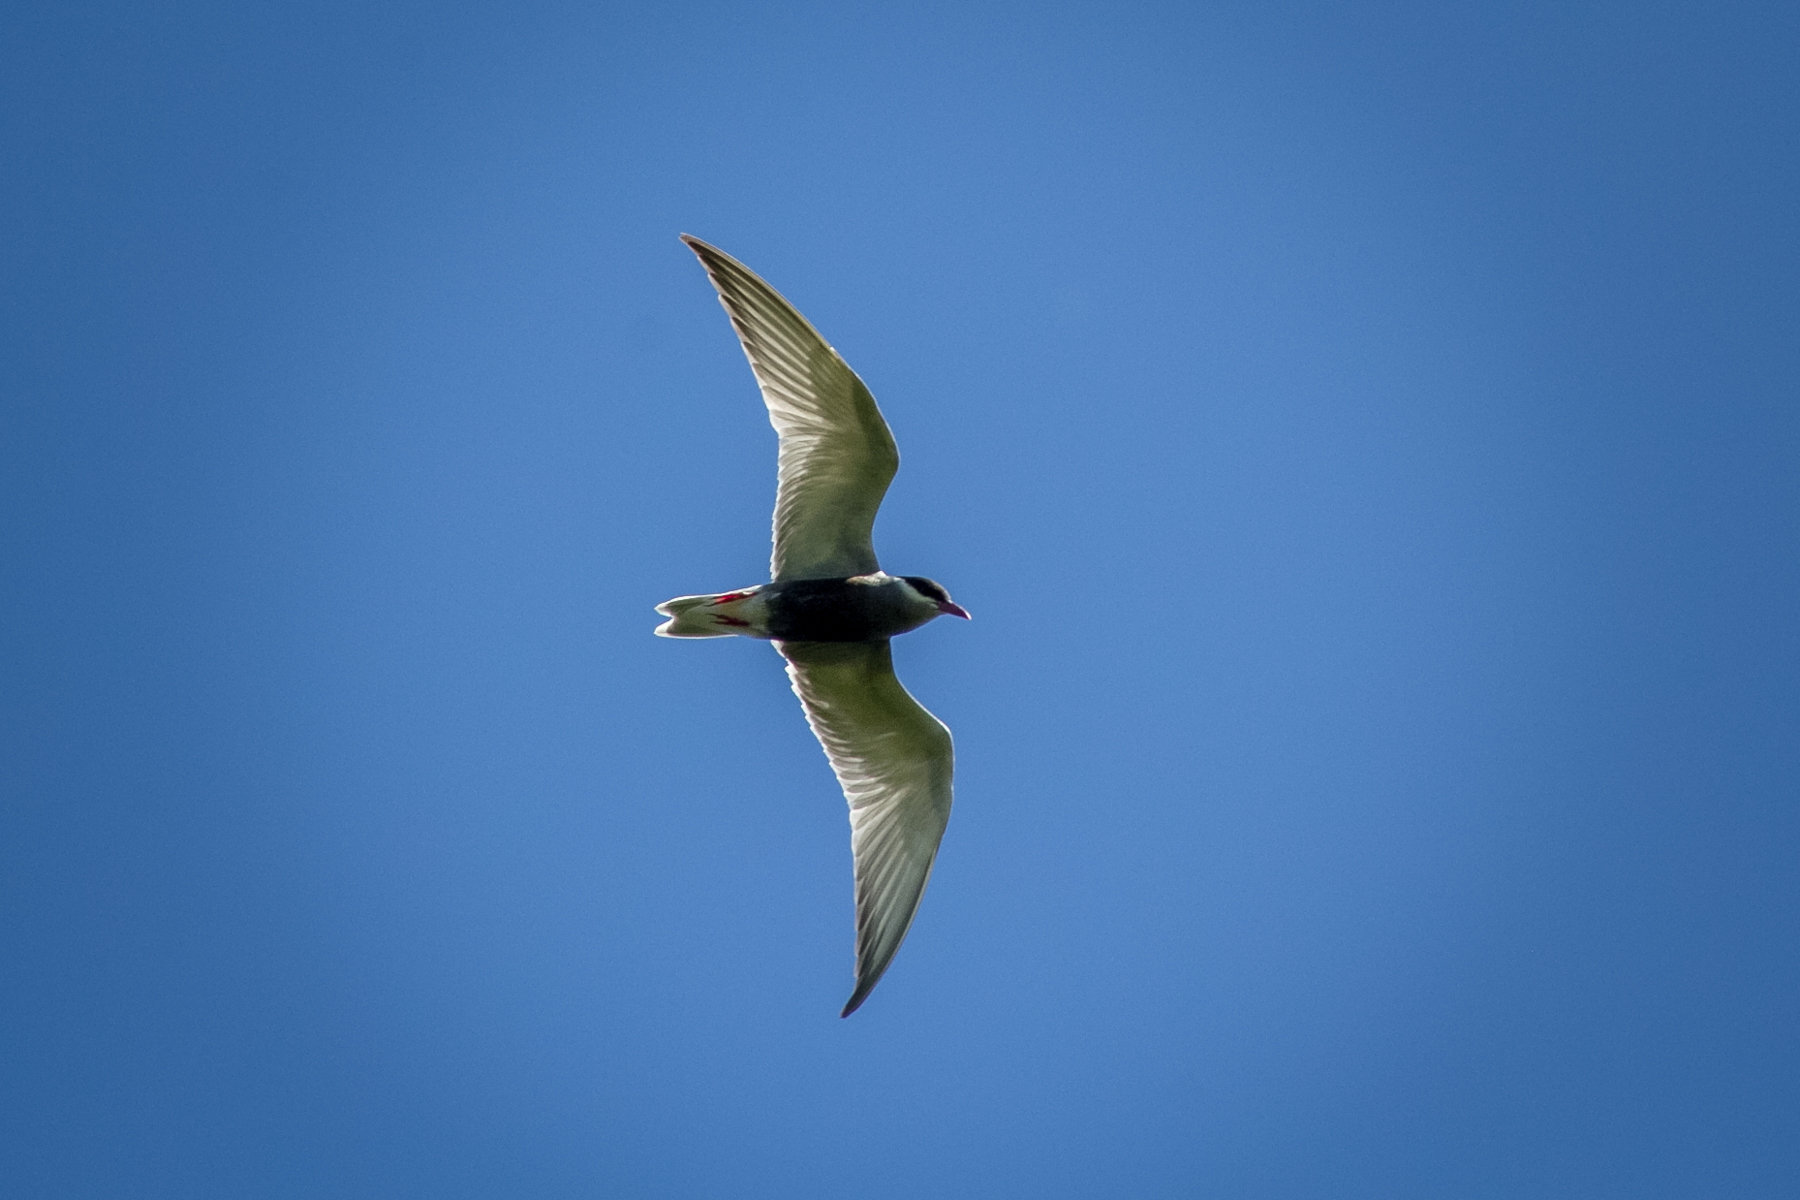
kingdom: Animalia
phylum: Chordata
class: Aves
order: Charadriiformes
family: Laridae
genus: Chlidonias
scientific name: Chlidonias hybrida
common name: Whiskered tern
